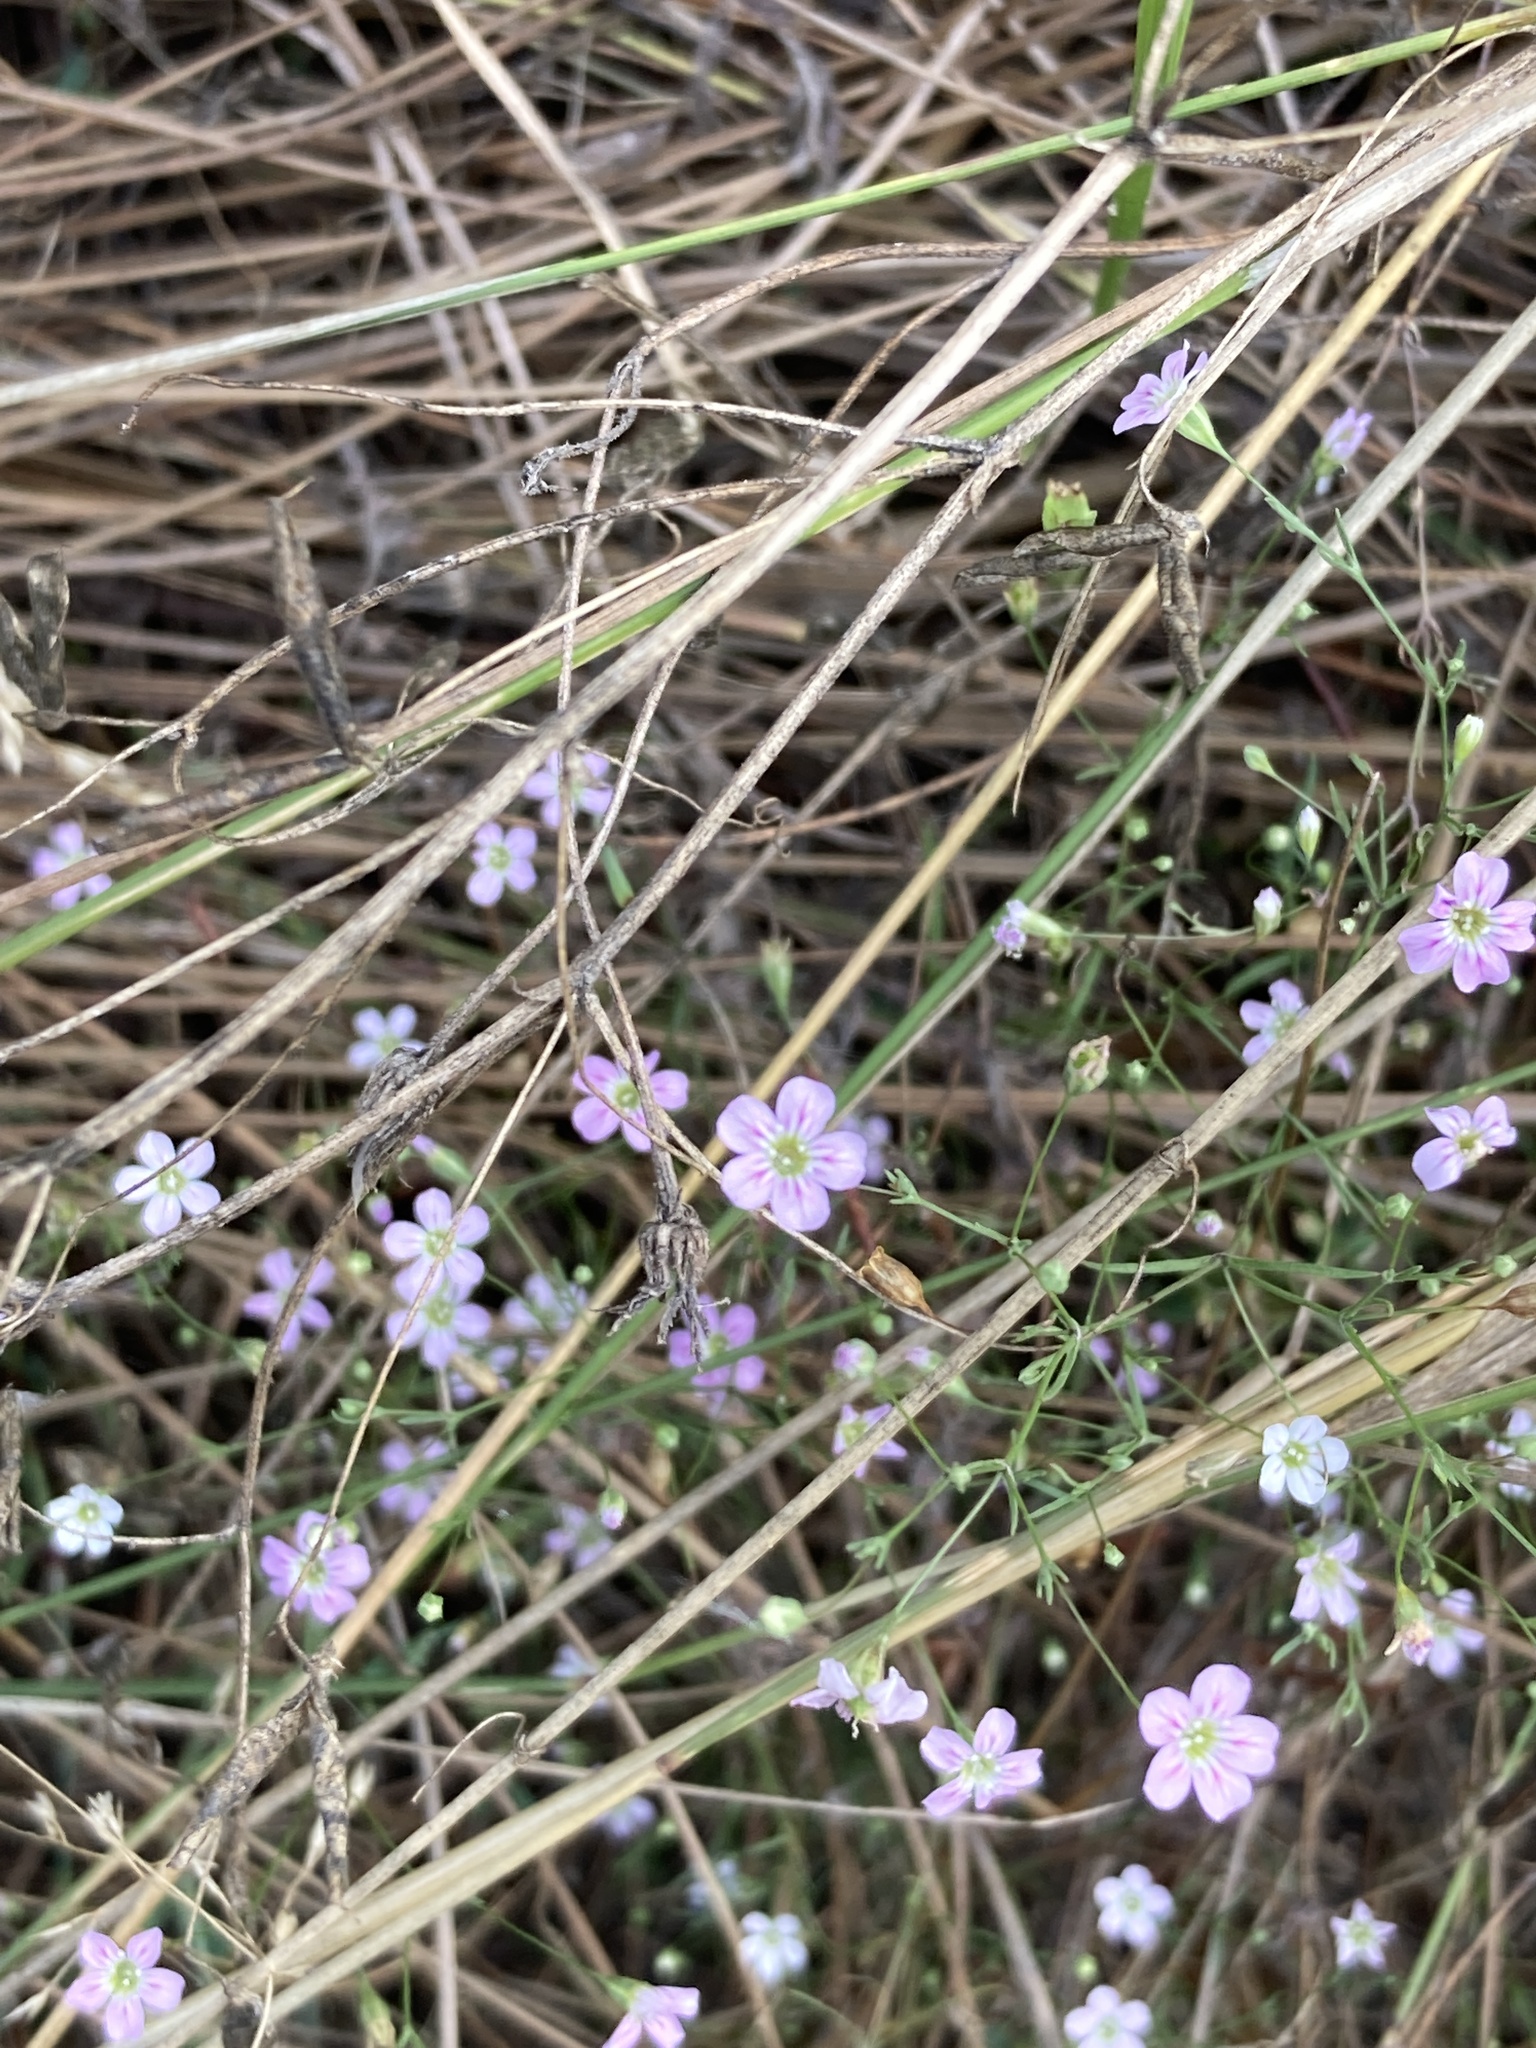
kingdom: Plantae
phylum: Tracheophyta
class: Magnoliopsida
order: Caryophyllales
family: Caryophyllaceae
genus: Psammophiliella
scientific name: Psammophiliella muralis
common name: Cushion baby's-breath
